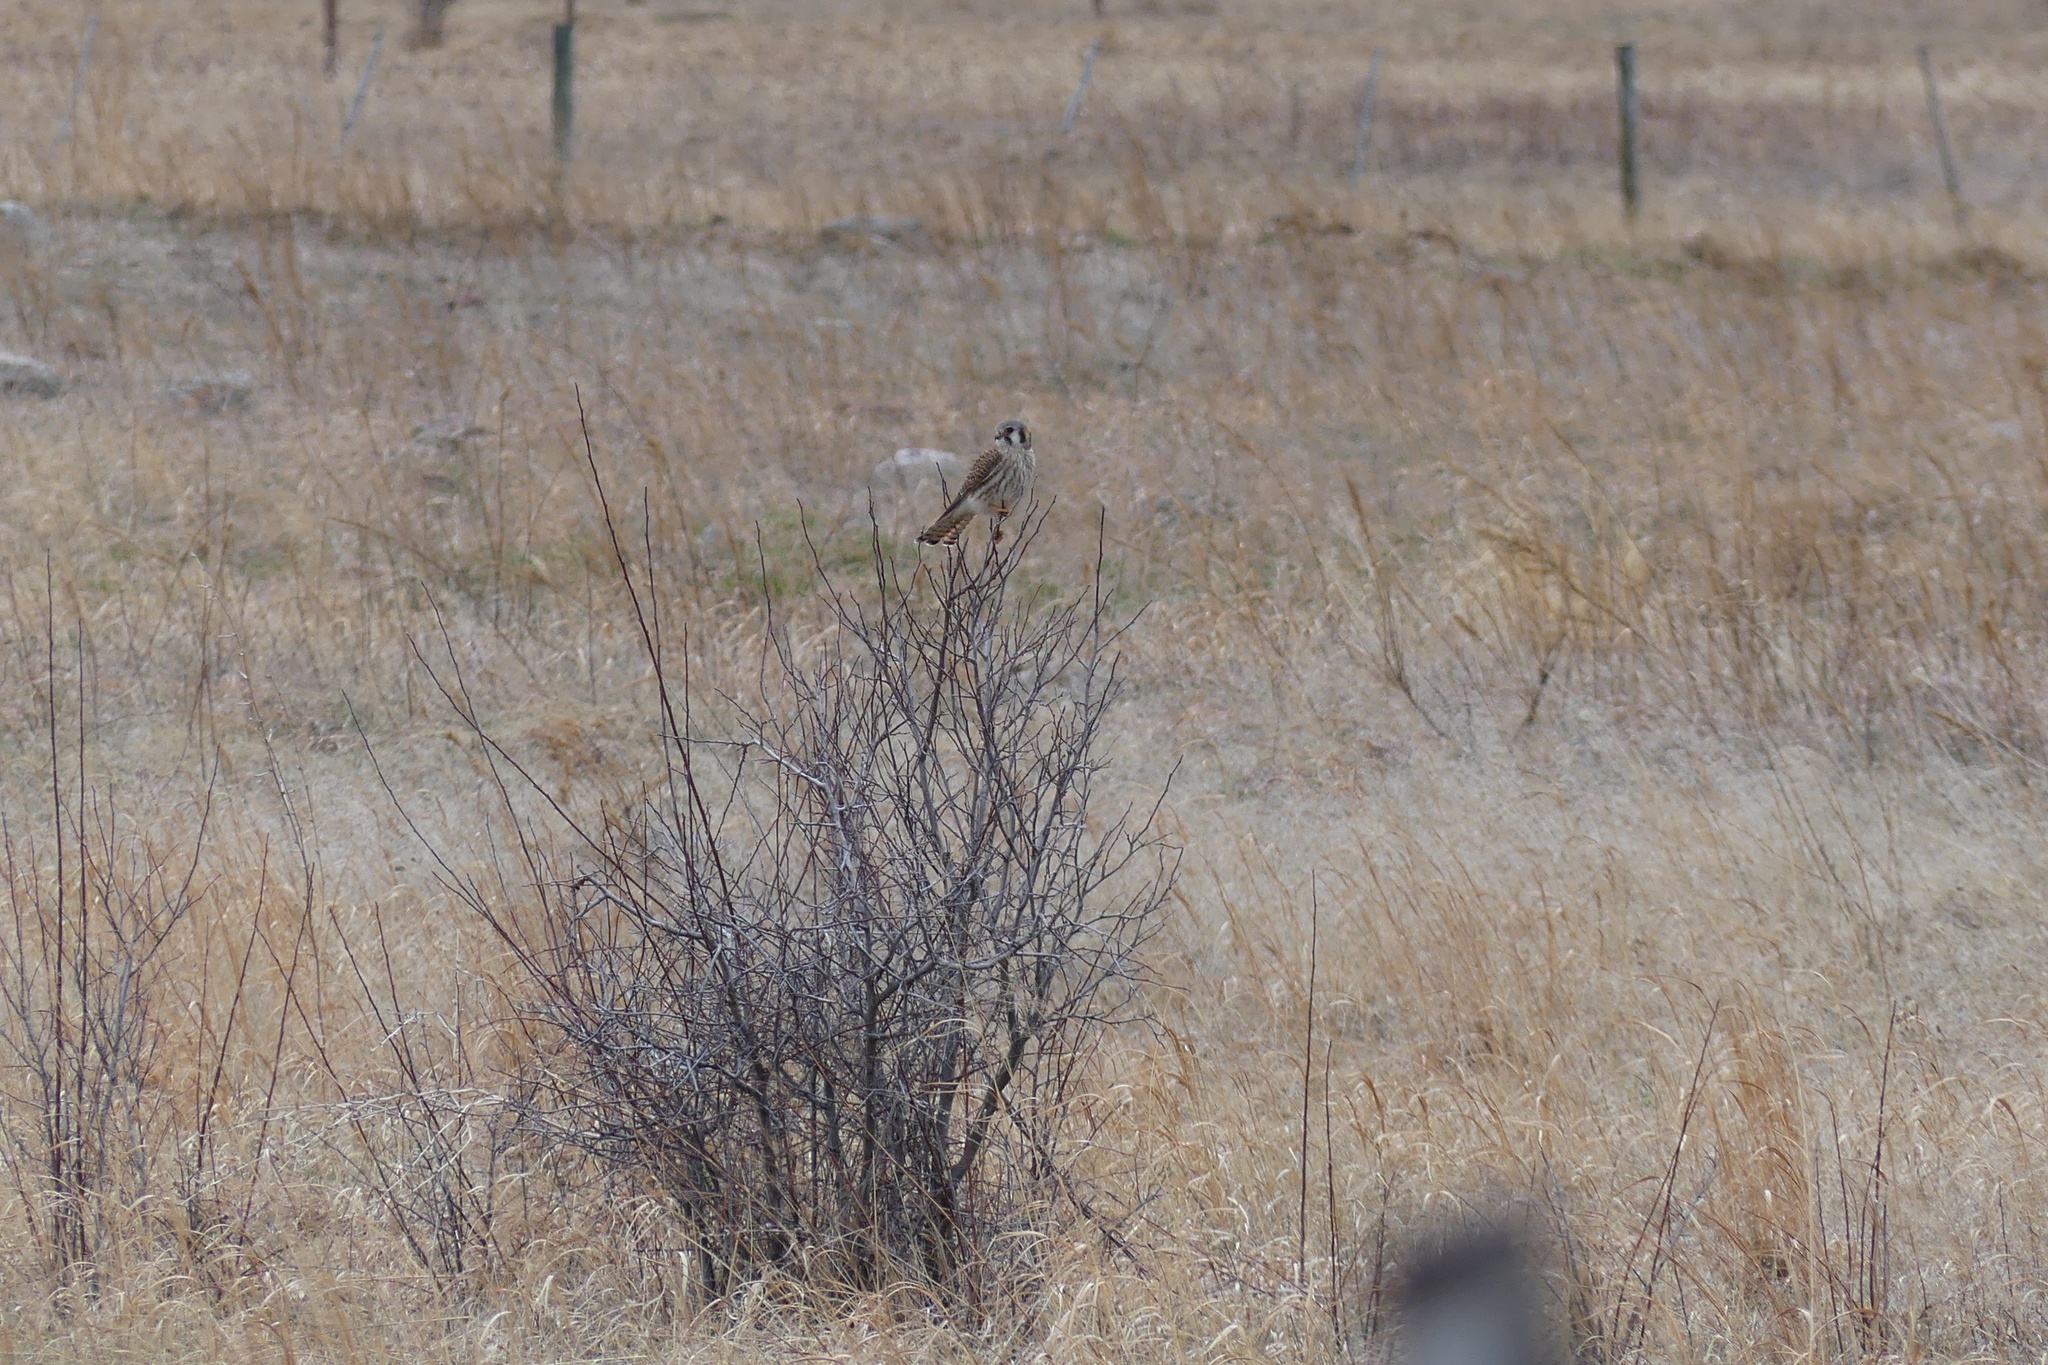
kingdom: Animalia
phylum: Chordata
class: Aves
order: Falconiformes
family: Falconidae
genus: Falco
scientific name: Falco sparverius
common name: American kestrel
